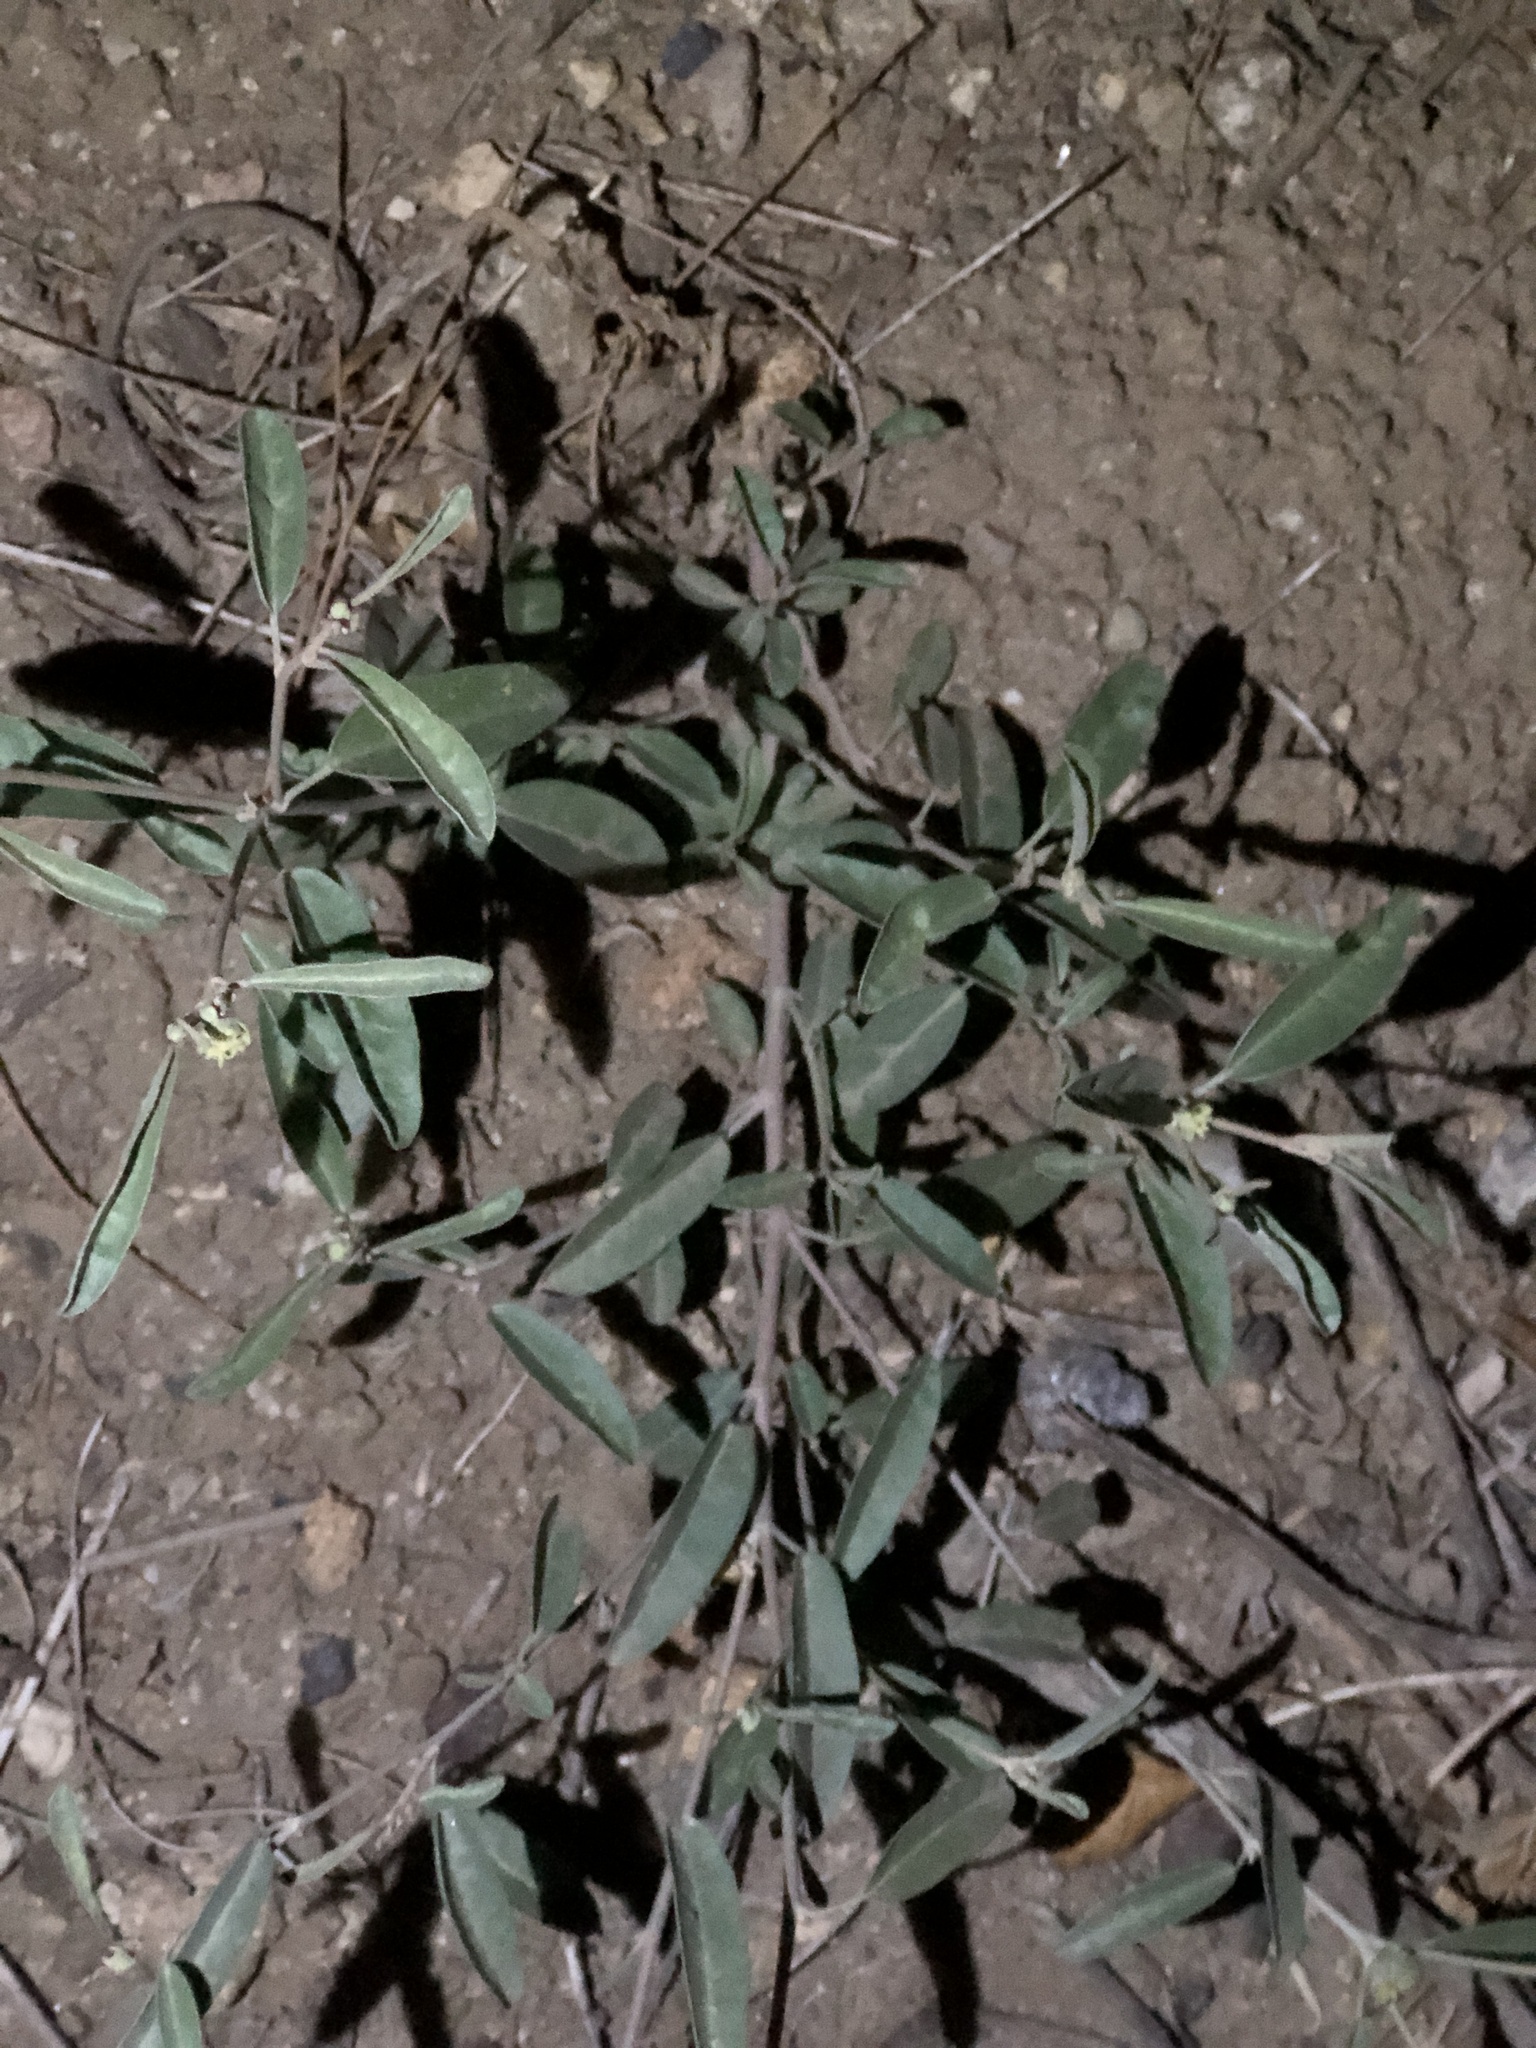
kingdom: Plantae
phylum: Tracheophyta
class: Magnoliopsida
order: Malpighiales
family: Euphorbiaceae
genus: Croton
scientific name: Croton californicus
